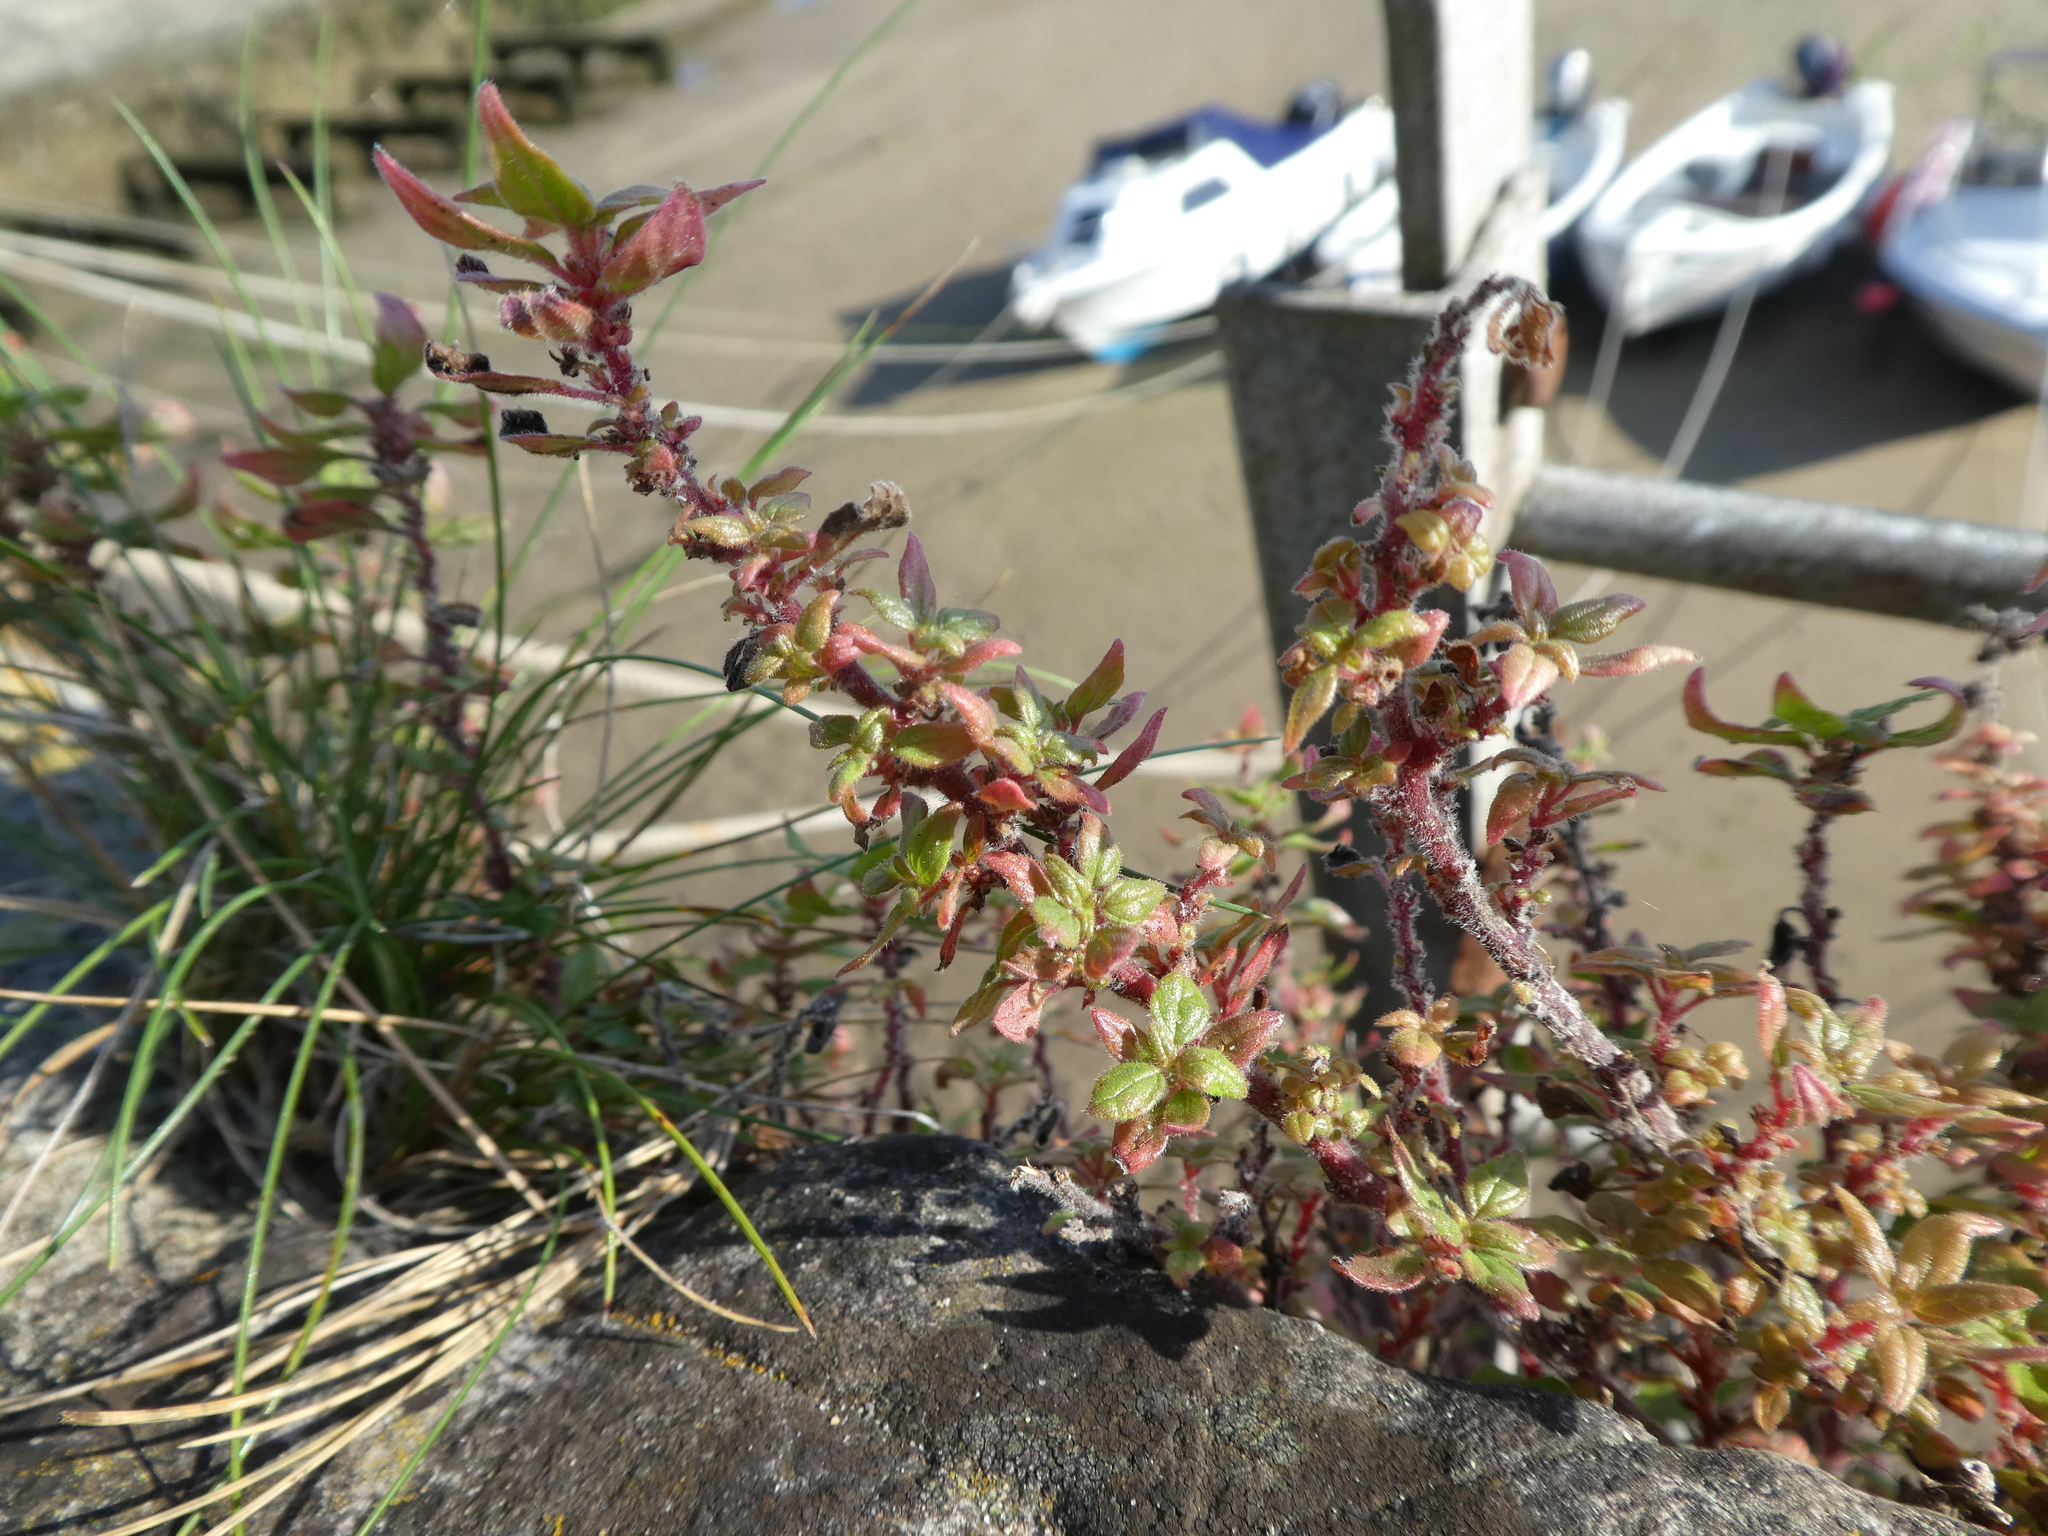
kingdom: Plantae
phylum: Tracheophyta
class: Magnoliopsida
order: Rosales
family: Urticaceae
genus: Parietaria
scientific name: Parietaria judaica
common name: Pellitory-of-the-wall
